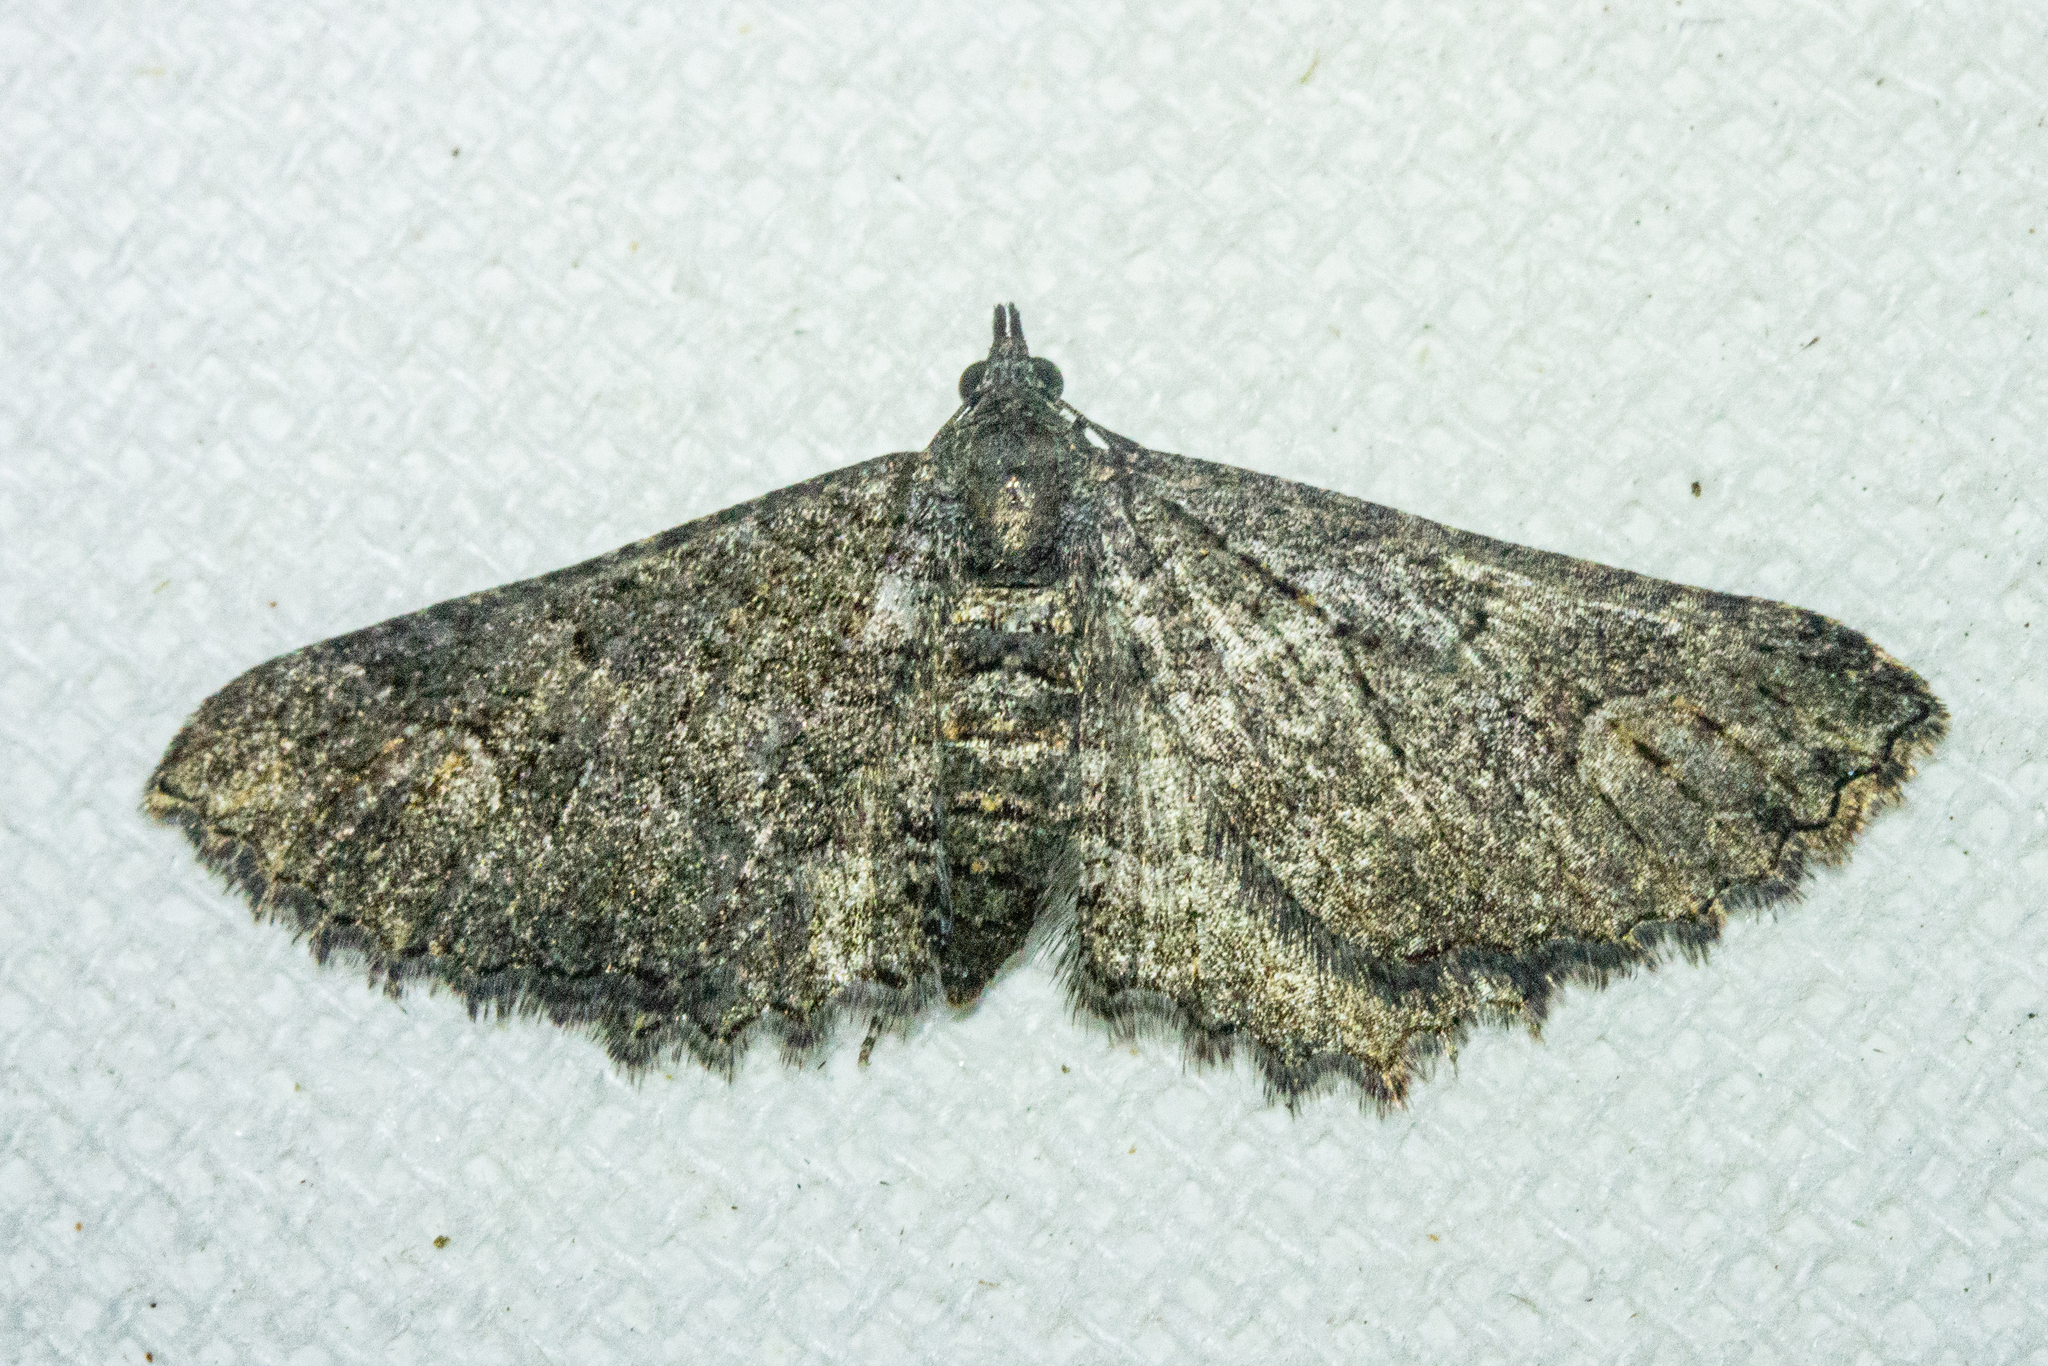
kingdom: Animalia
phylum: Arthropoda
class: Insecta
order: Lepidoptera
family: Geometridae
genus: Horisme
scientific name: Horisme suppressaria
